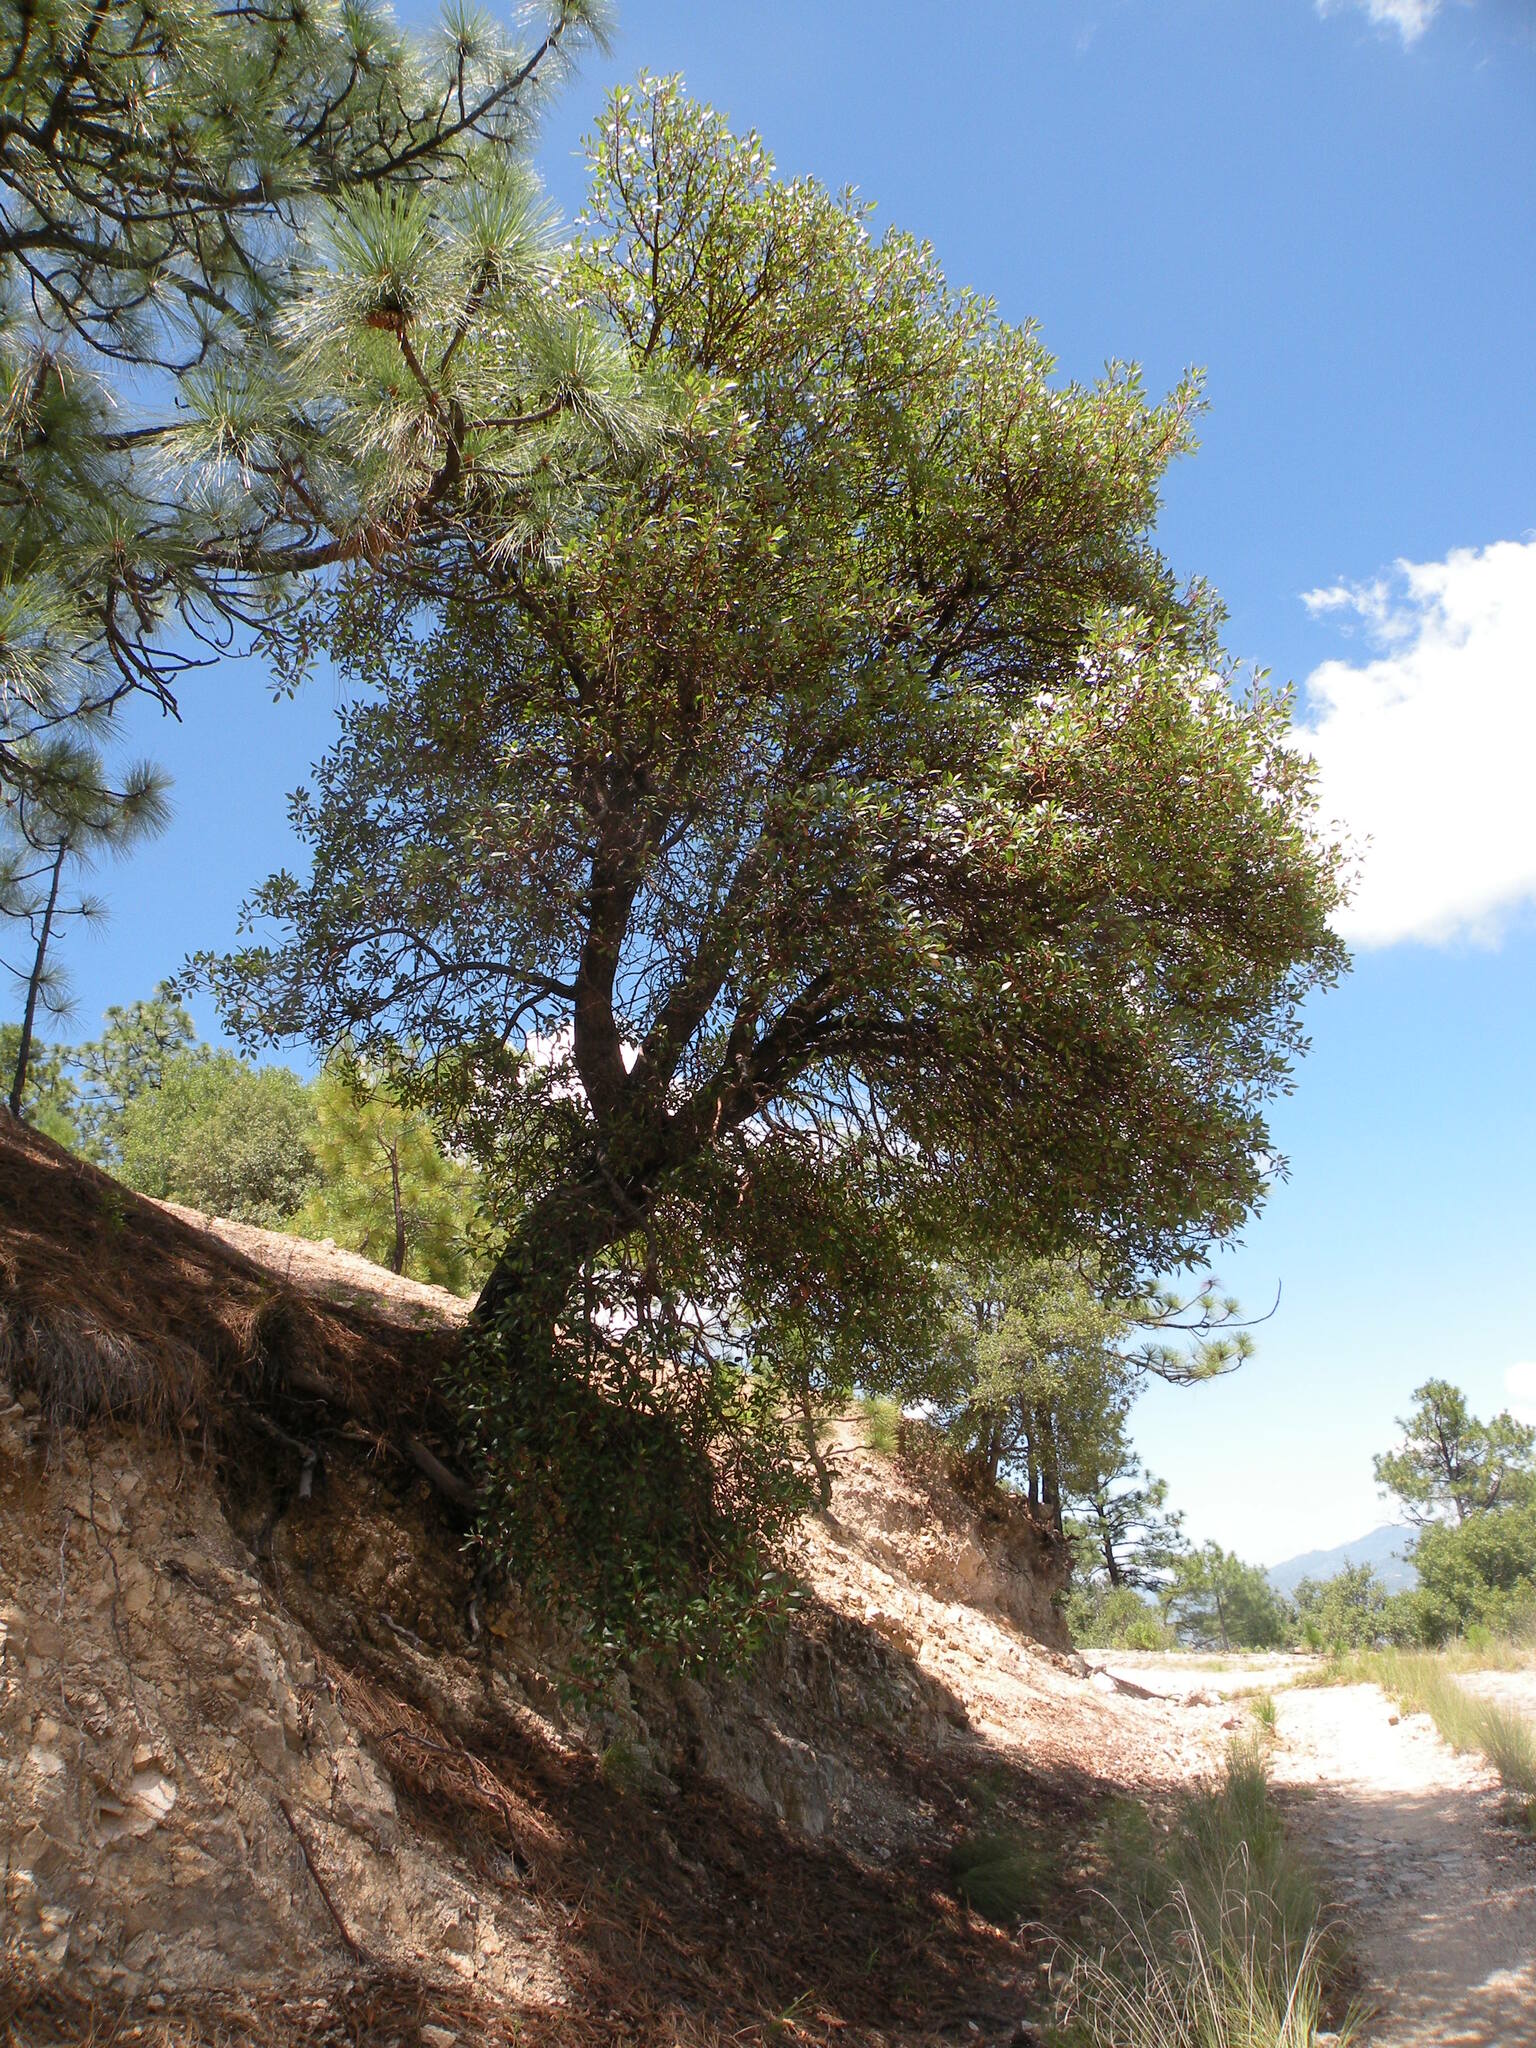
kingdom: Plantae
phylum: Tracheophyta
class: Magnoliopsida
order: Ericales
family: Ericaceae
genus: Arbutus
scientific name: Arbutus arizonica
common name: Arizona madrone
